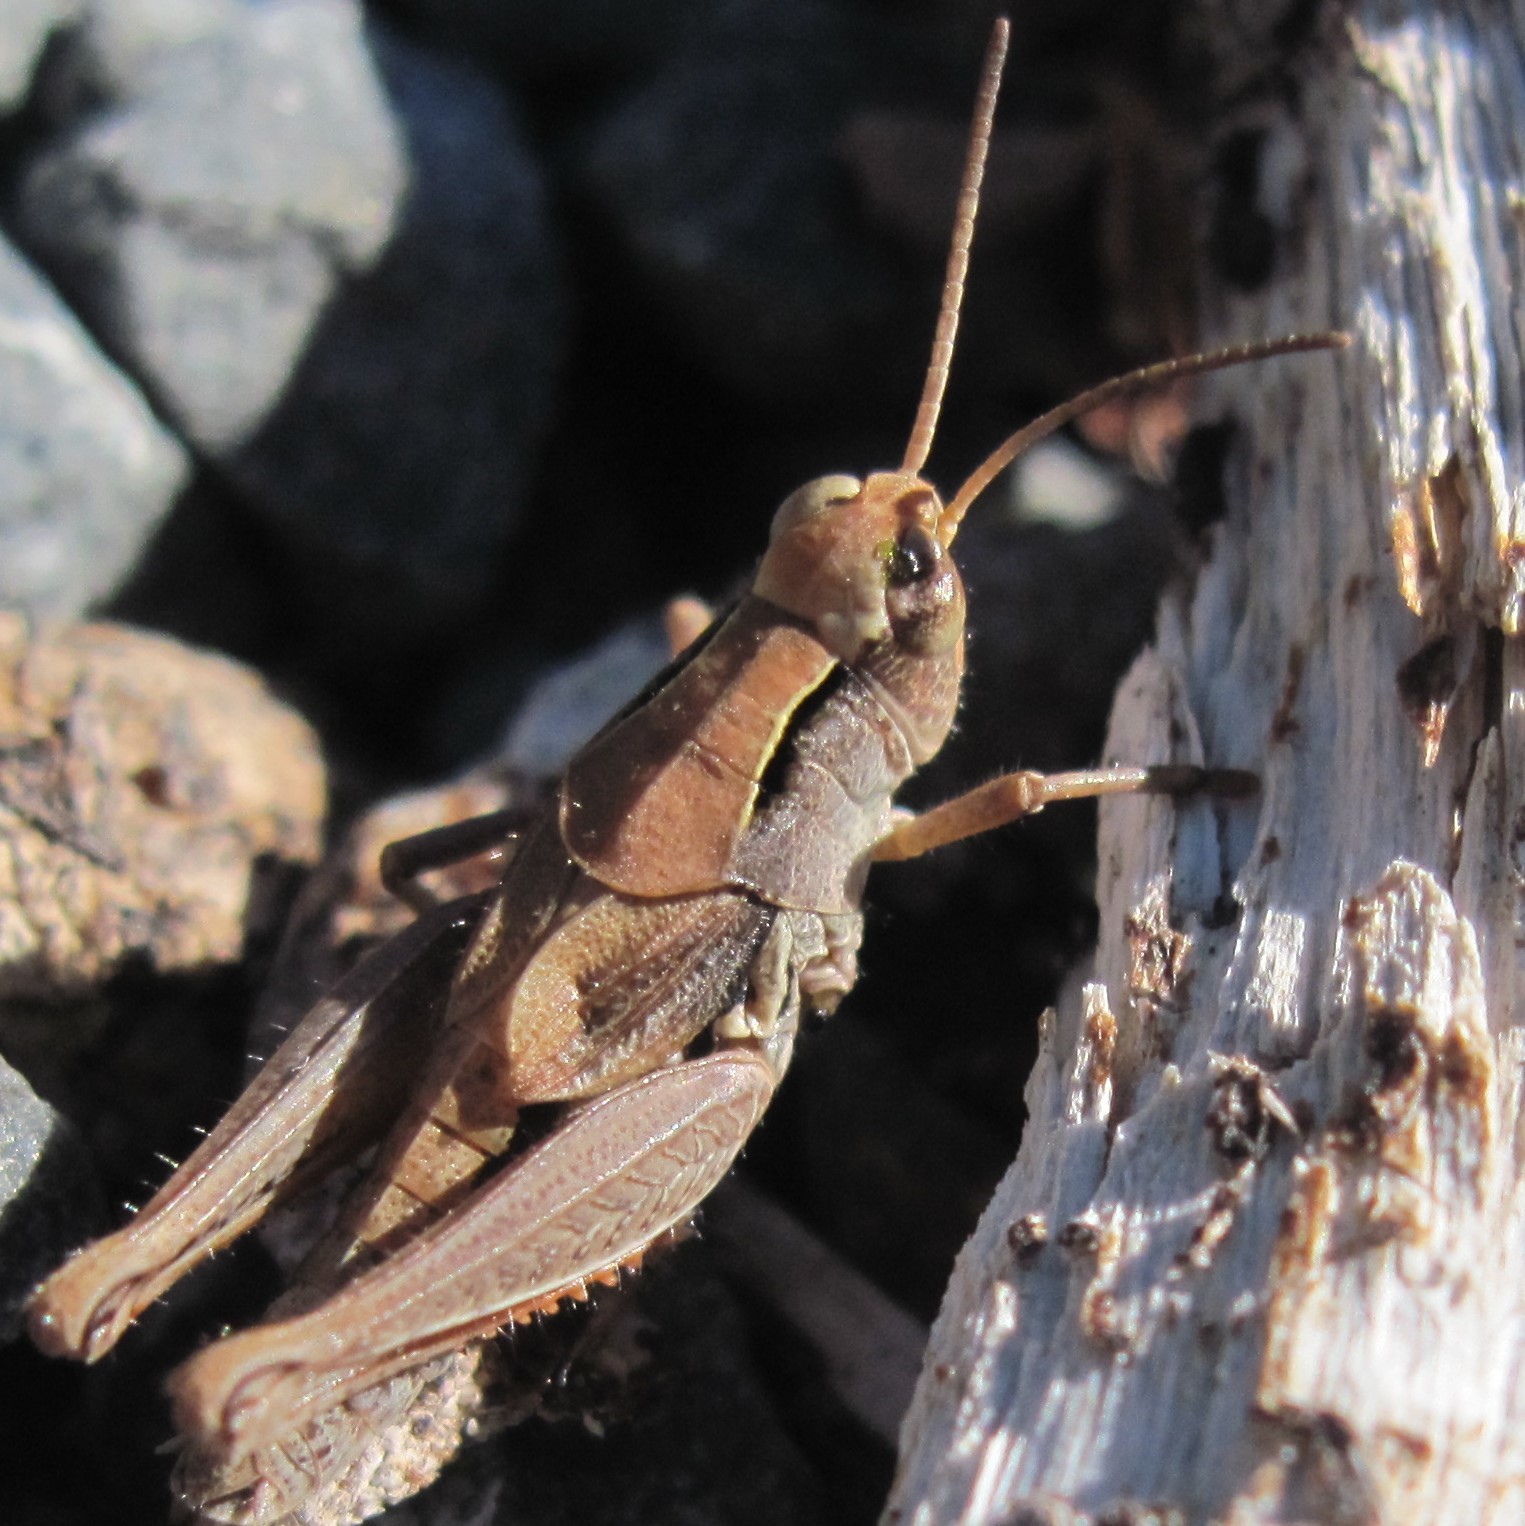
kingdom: Animalia
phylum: Arthropoda
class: Insecta
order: Orthoptera
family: Acrididae
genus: Phaulacridium
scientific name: Phaulacridium marginale
